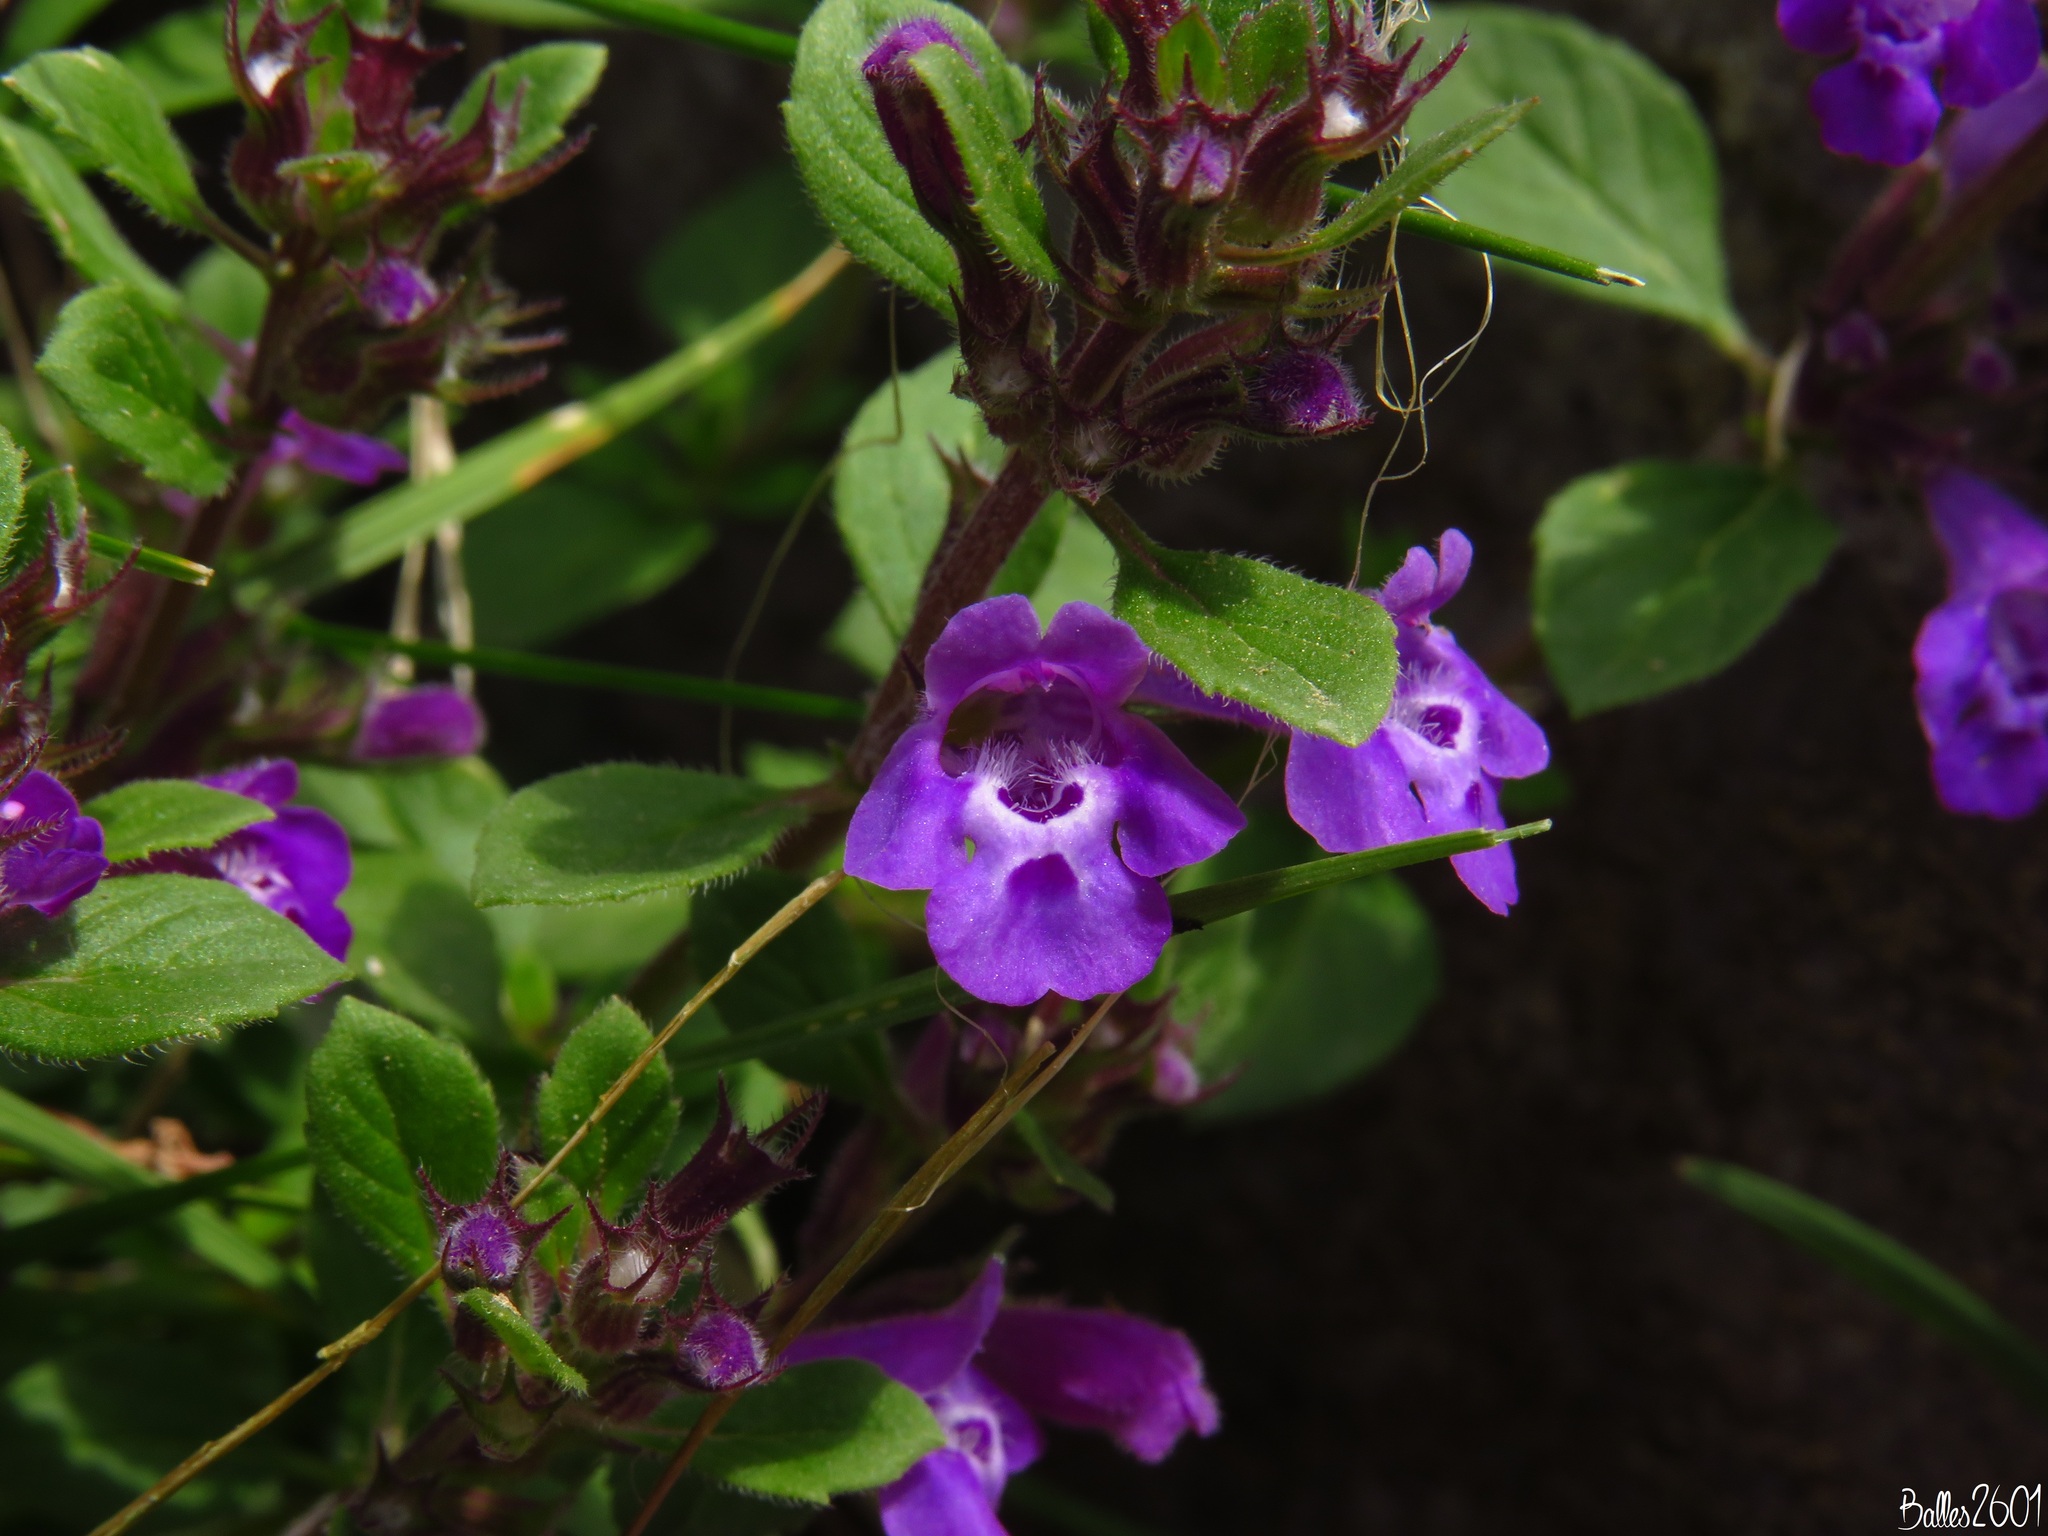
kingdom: Plantae
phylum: Tracheophyta
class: Magnoliopsida
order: Lamiales
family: Lamiaceae
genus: Clinopodium
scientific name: Clinopodium alpinum
